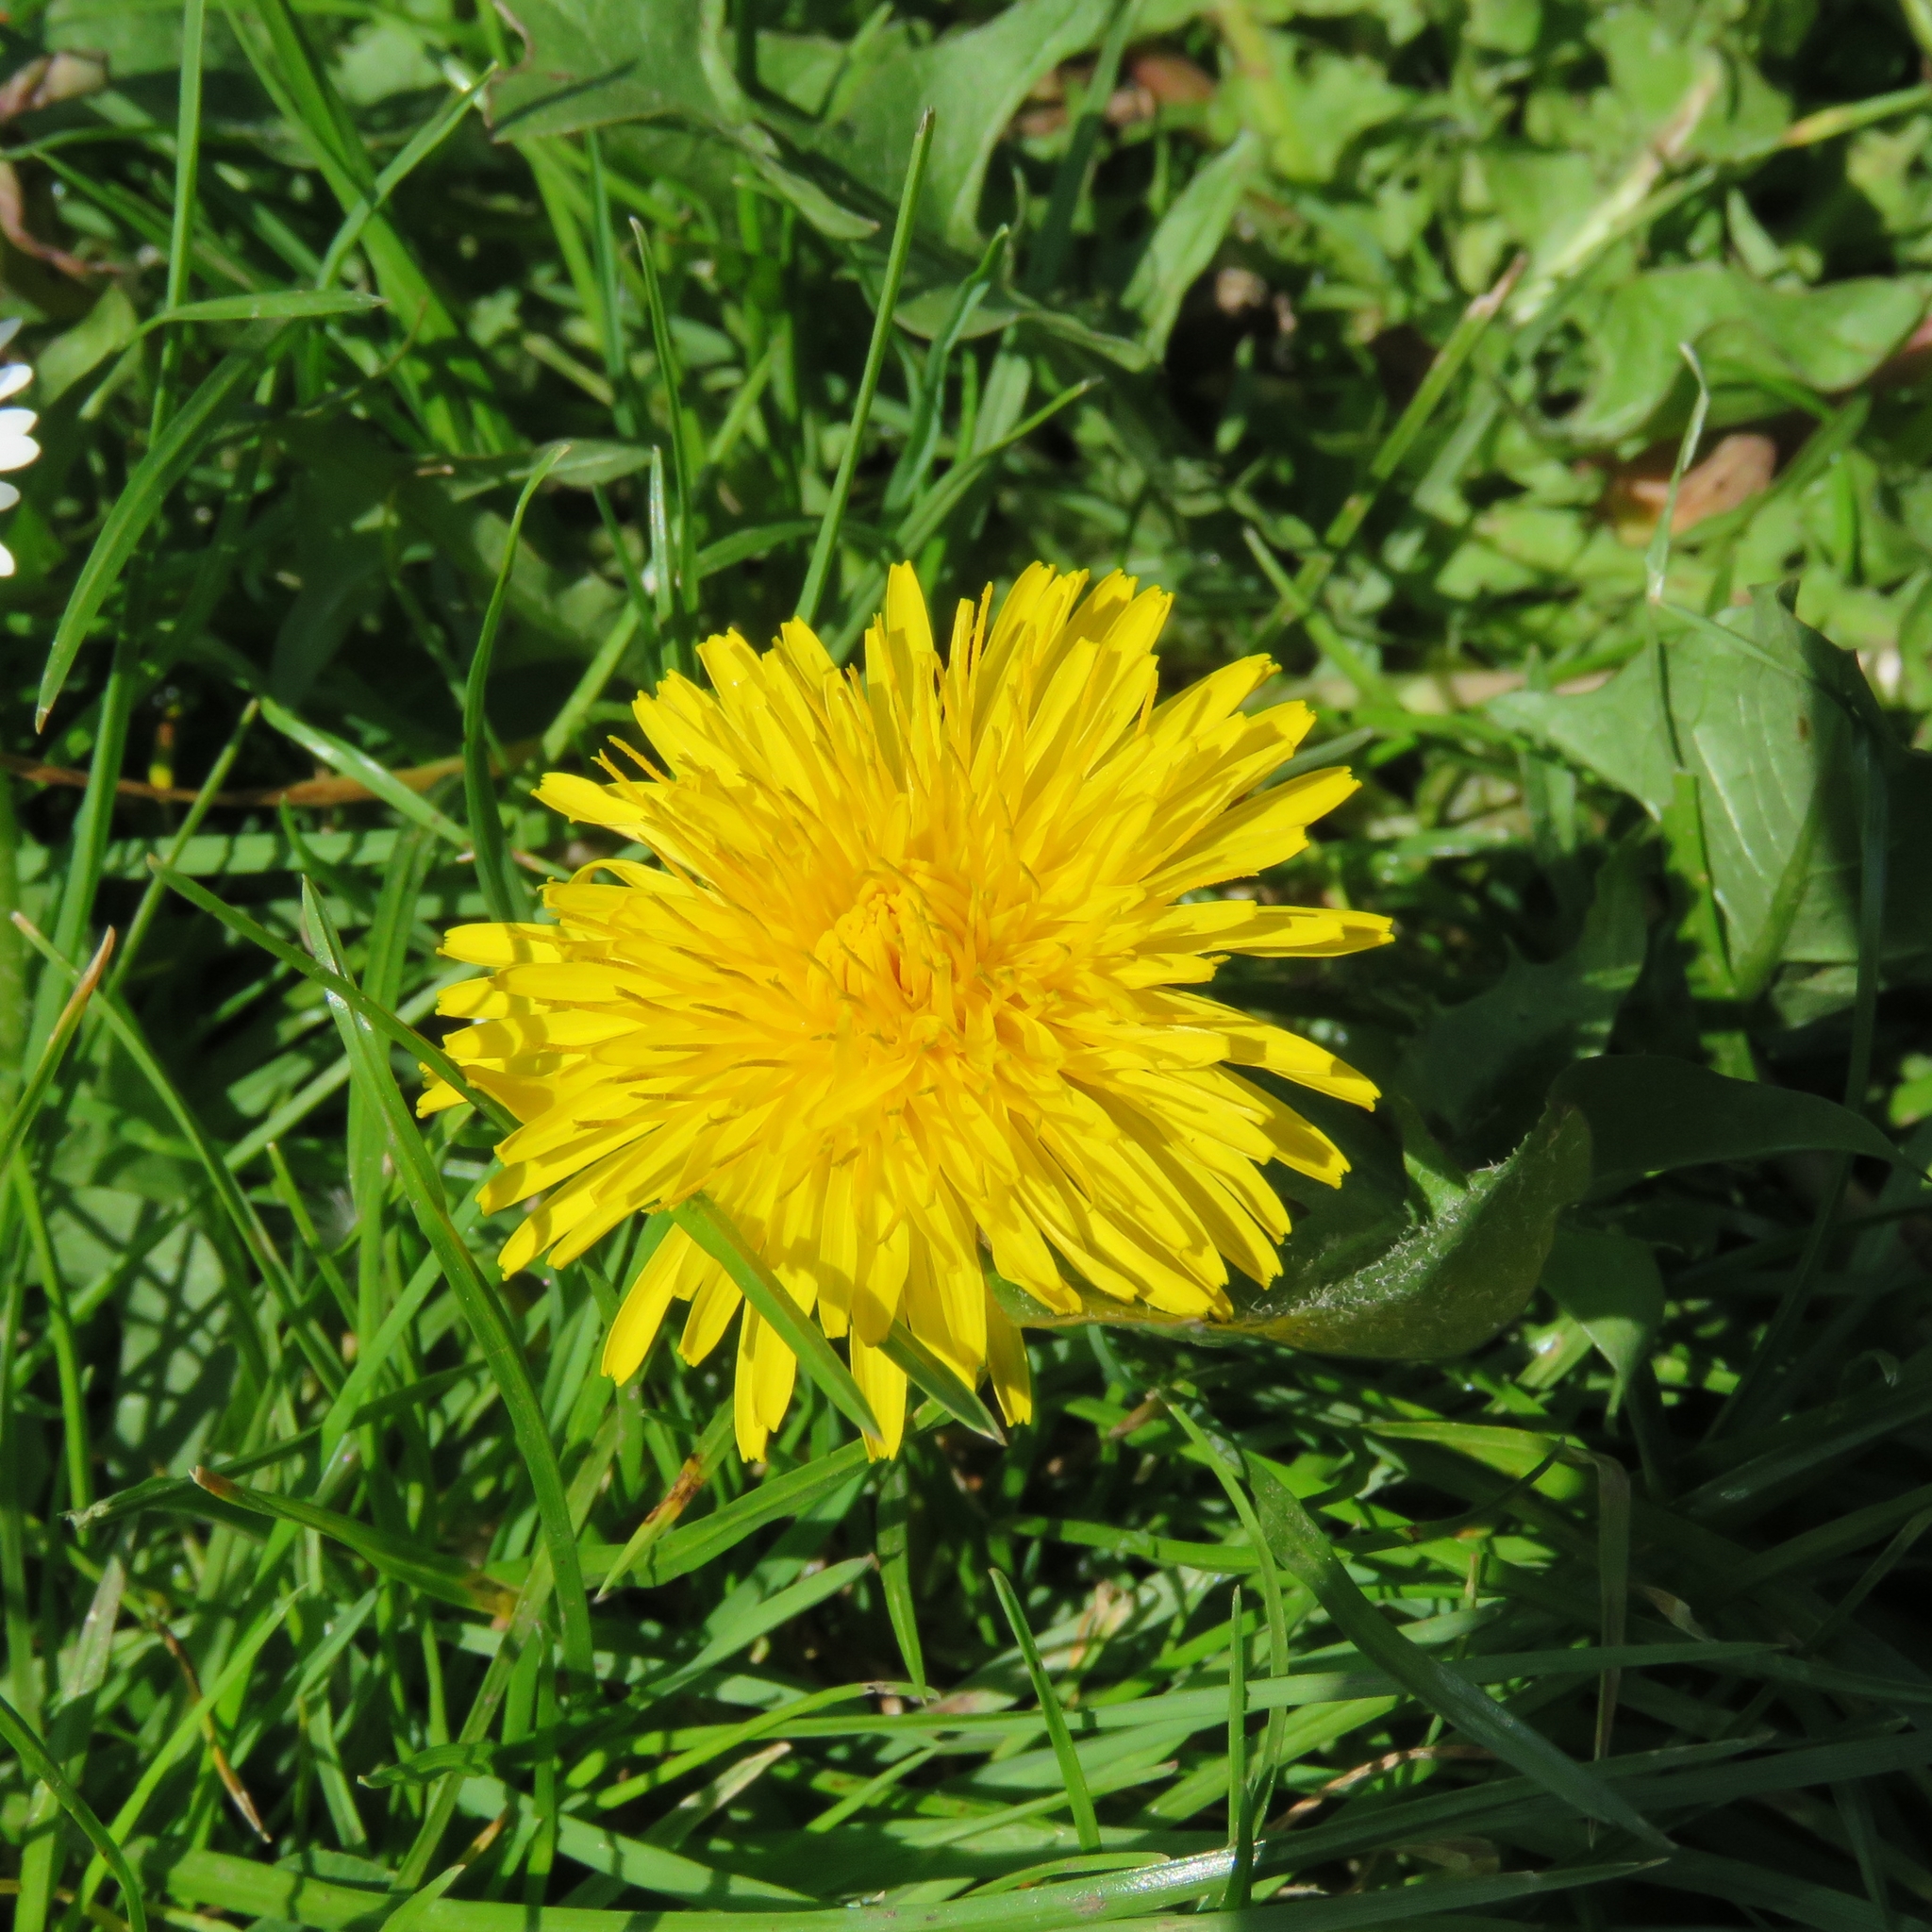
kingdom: Plantae
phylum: Tracheophyta
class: Magnoliopsida
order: Asterales
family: Asteraceae
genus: Taraxacum
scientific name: Taraxacum officinale
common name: Common dandelion
